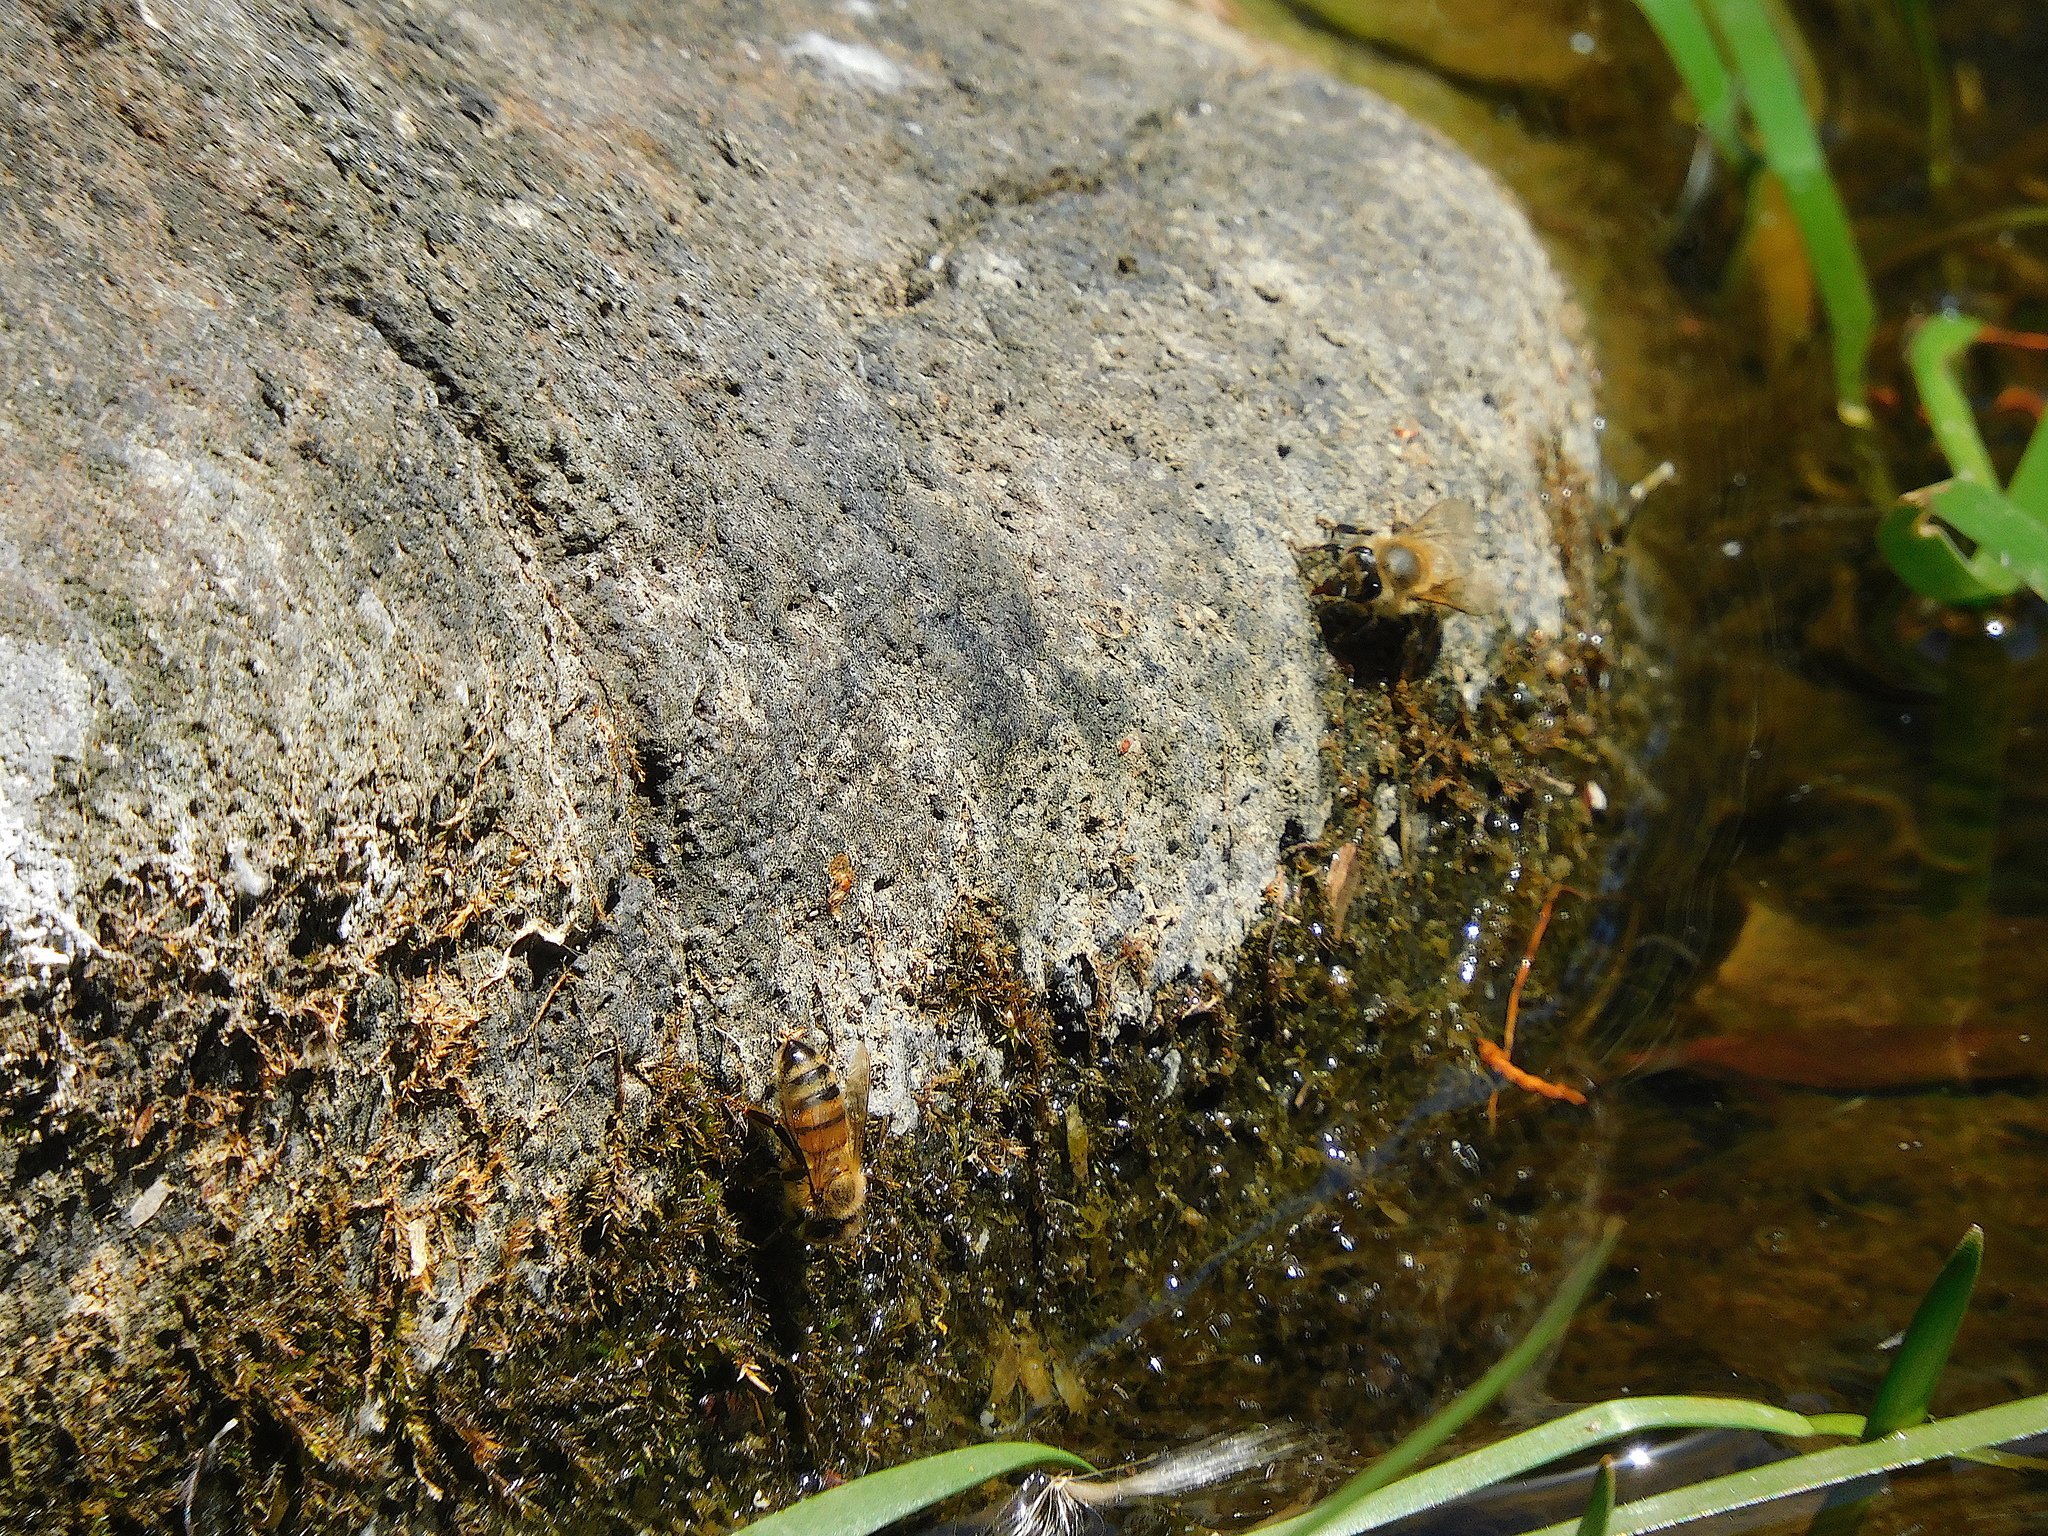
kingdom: Animalia
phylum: Arthropoda
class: Insecta
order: Hymenoptera
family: Apidae
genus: Apis
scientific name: Apis mellifera
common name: Honey bee
